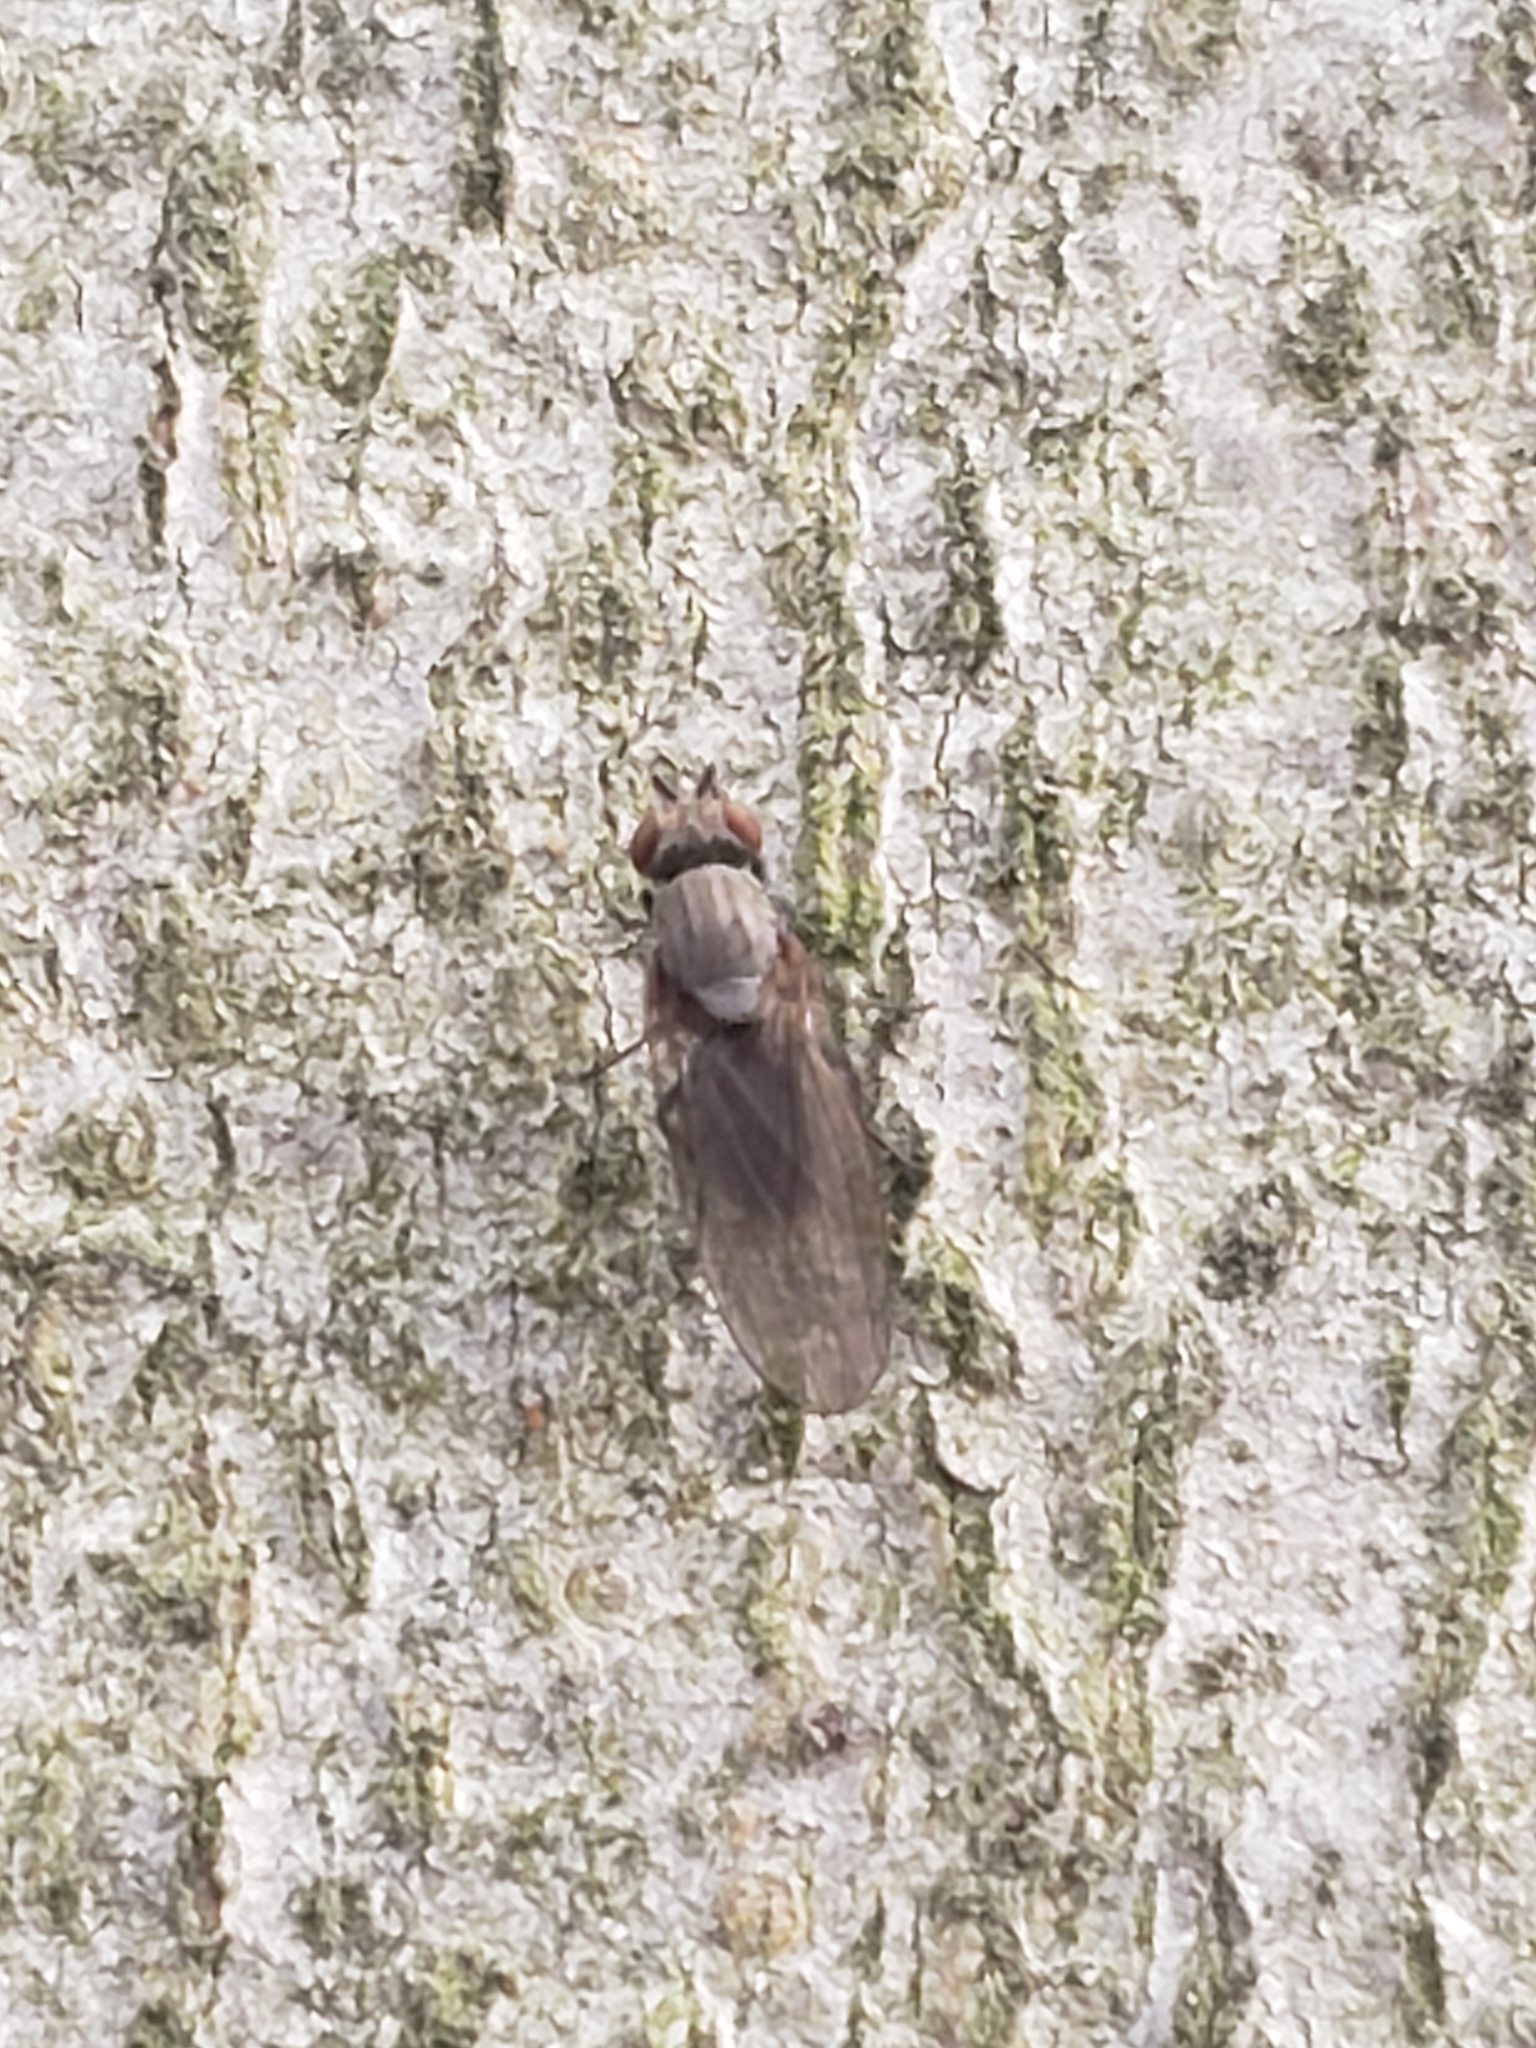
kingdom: Animalia
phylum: Arthropoda
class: Insecta
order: Diptera
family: Lauxaniidae
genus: Sapromyza
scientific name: Sapromyza brachysoma
